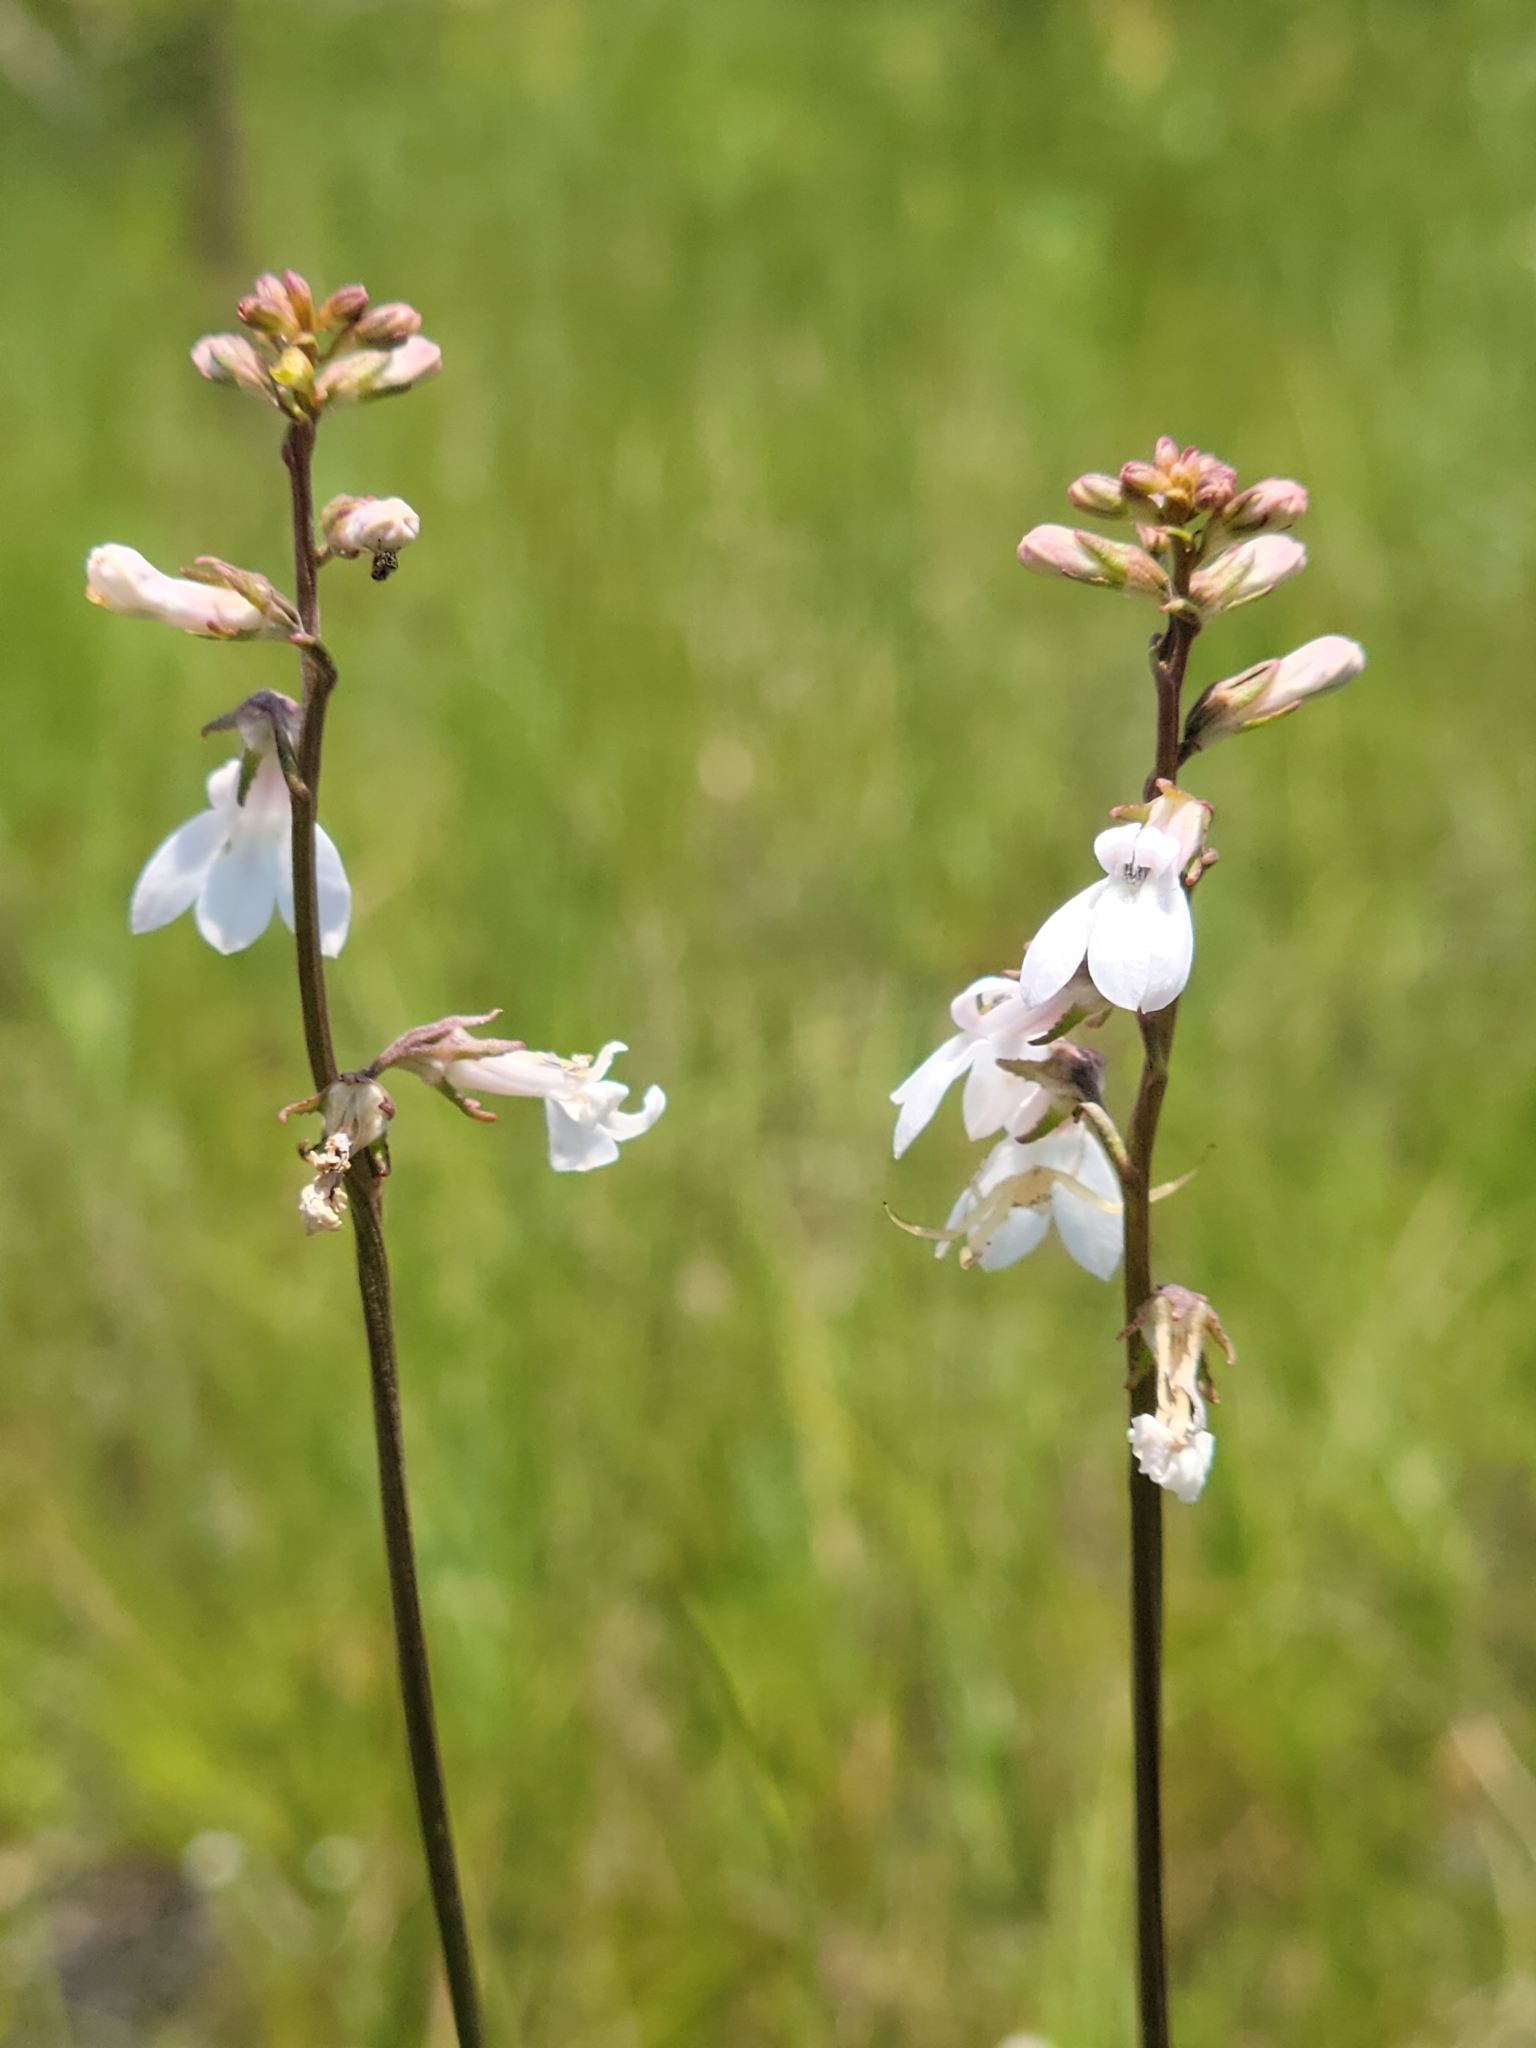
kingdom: Plantae
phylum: Tracheophyta
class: Magnoliopsida
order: Asterales
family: Campanulaceae
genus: Lobelia
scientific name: Lobelia paludosa
